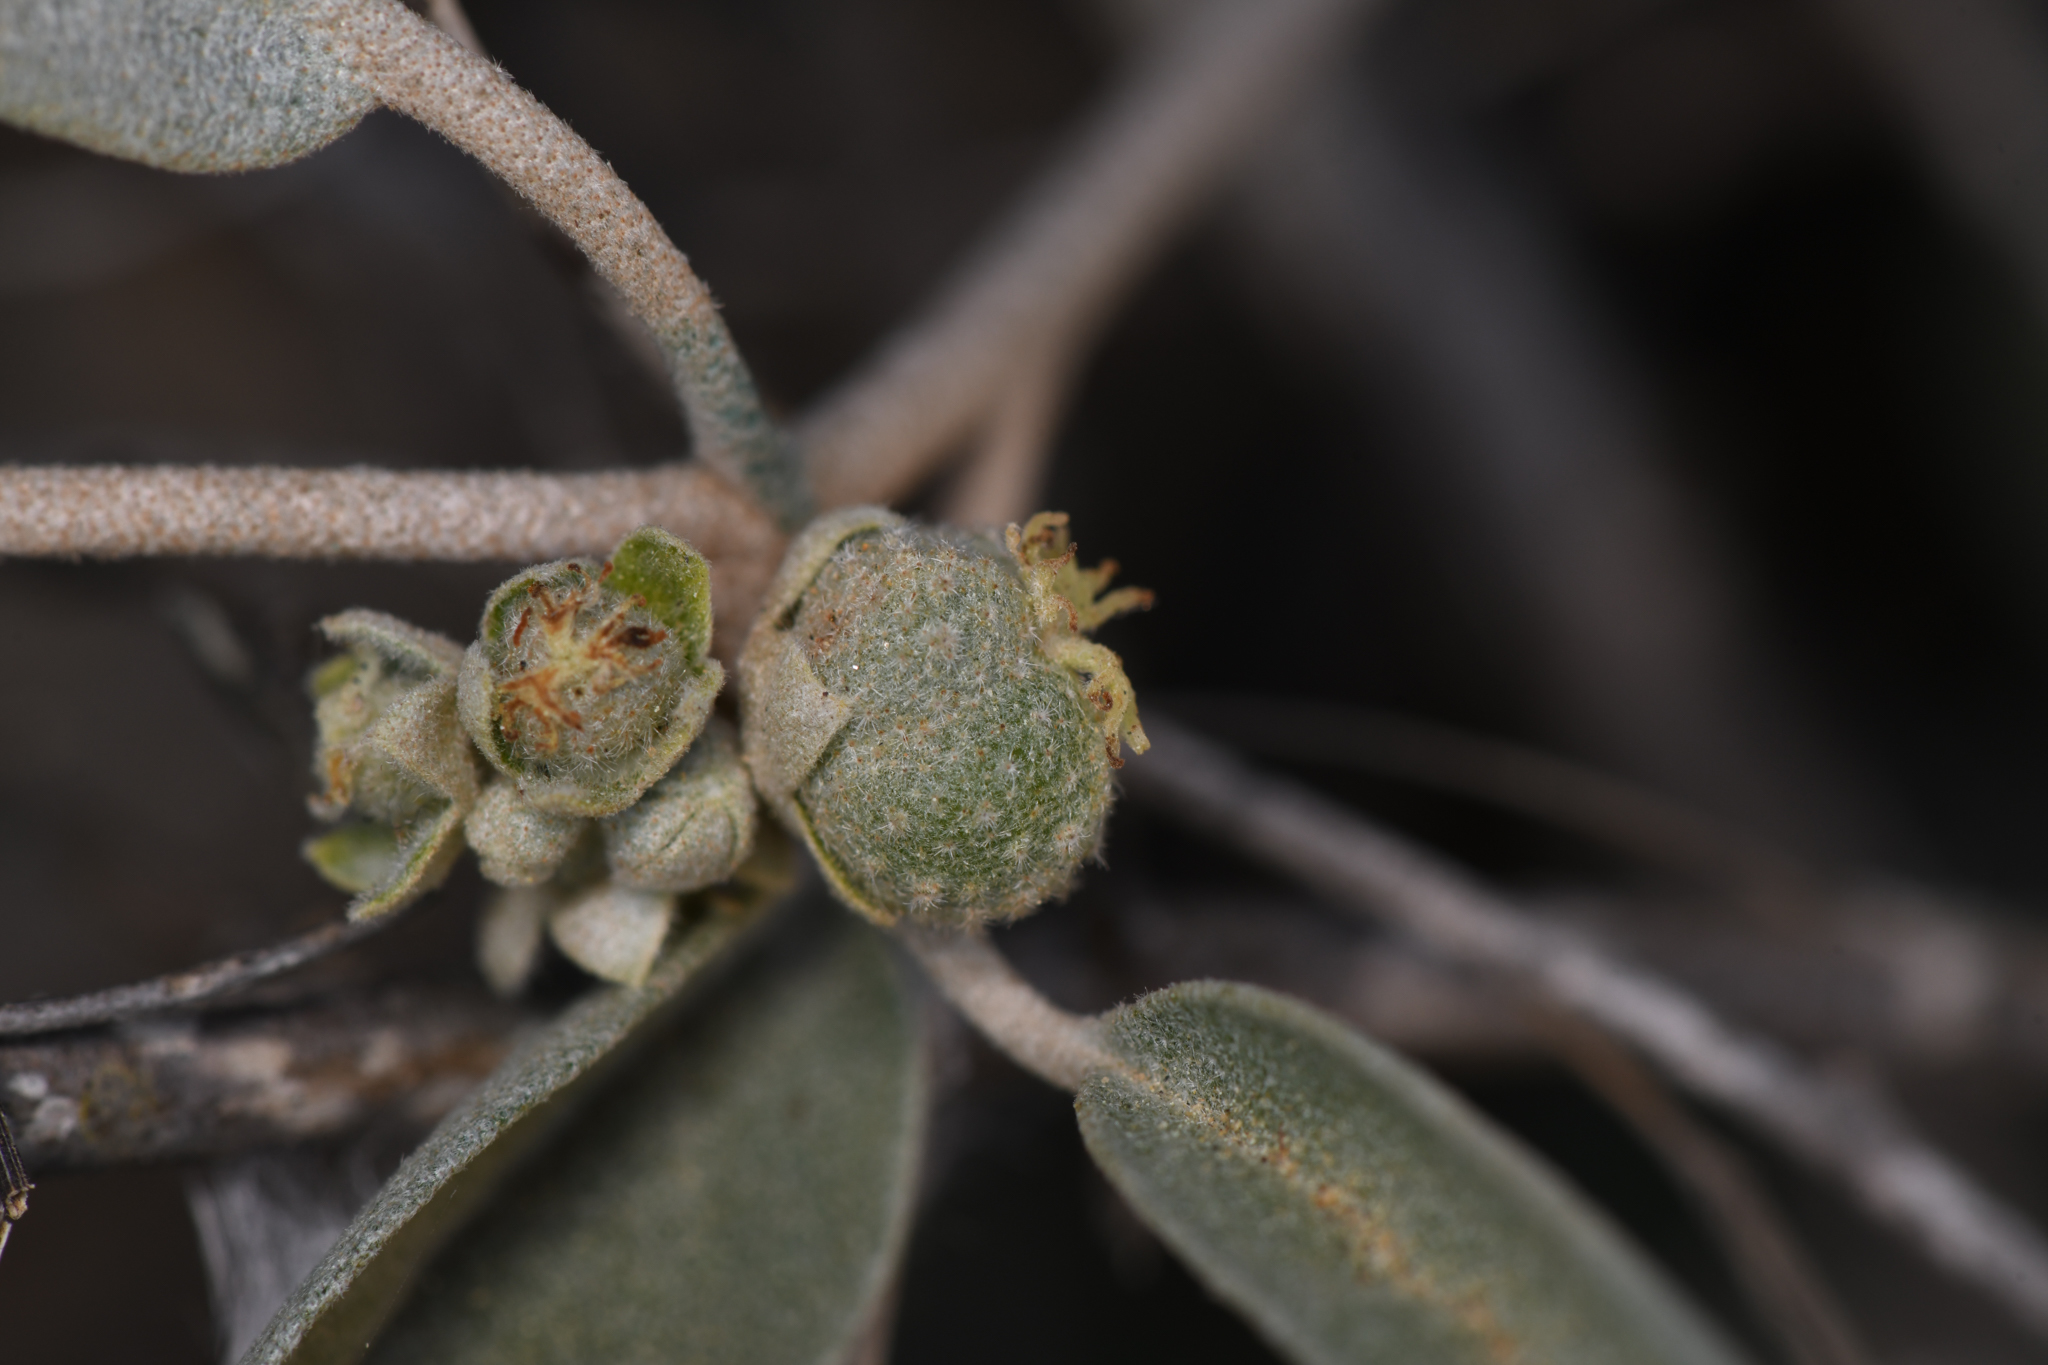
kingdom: Plantae
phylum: Tracheophyta
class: Magnoliopsida
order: Malpighiales
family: Euphorbiaceae
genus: Croton
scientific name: Croton californicus
